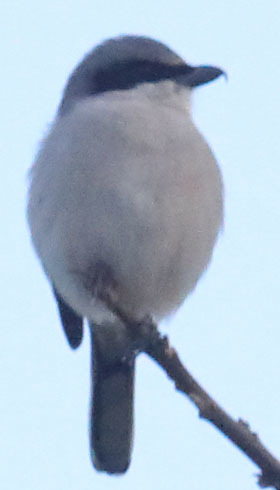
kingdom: Animalia
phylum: Chordata
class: Aves
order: Passeriformes
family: Laniidae
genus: Lanius
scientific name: Lanius ludovicianus
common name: Loggerhead shrike
